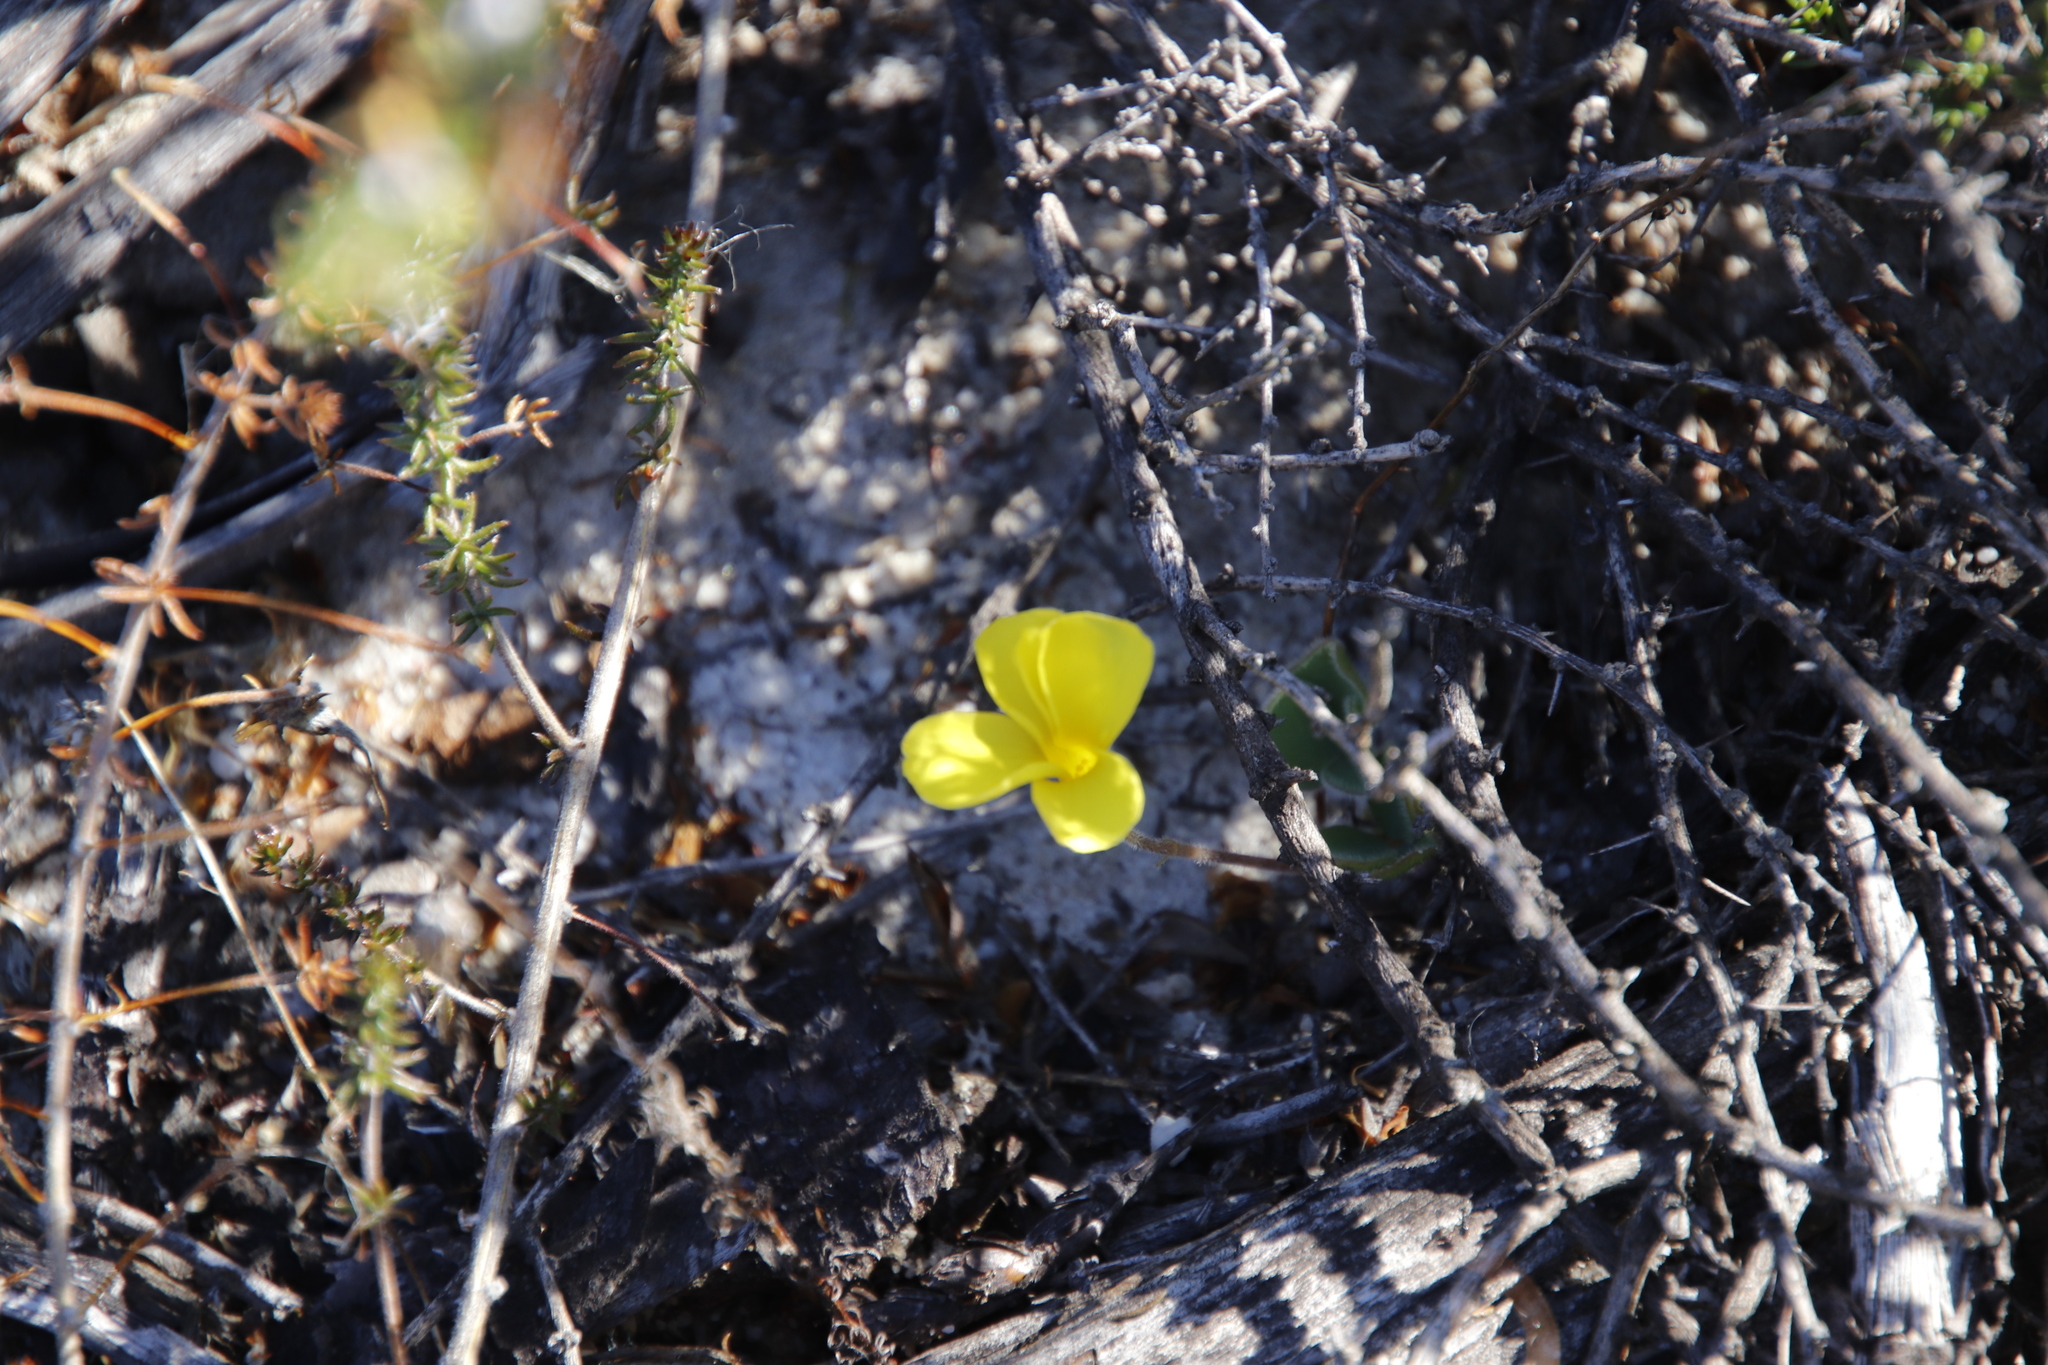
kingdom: Plantae
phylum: Tracheophyta
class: Magnoliopsida
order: Oxalidales
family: Oxalidaceae
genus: Oxalis
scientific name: Oxalis luteola
